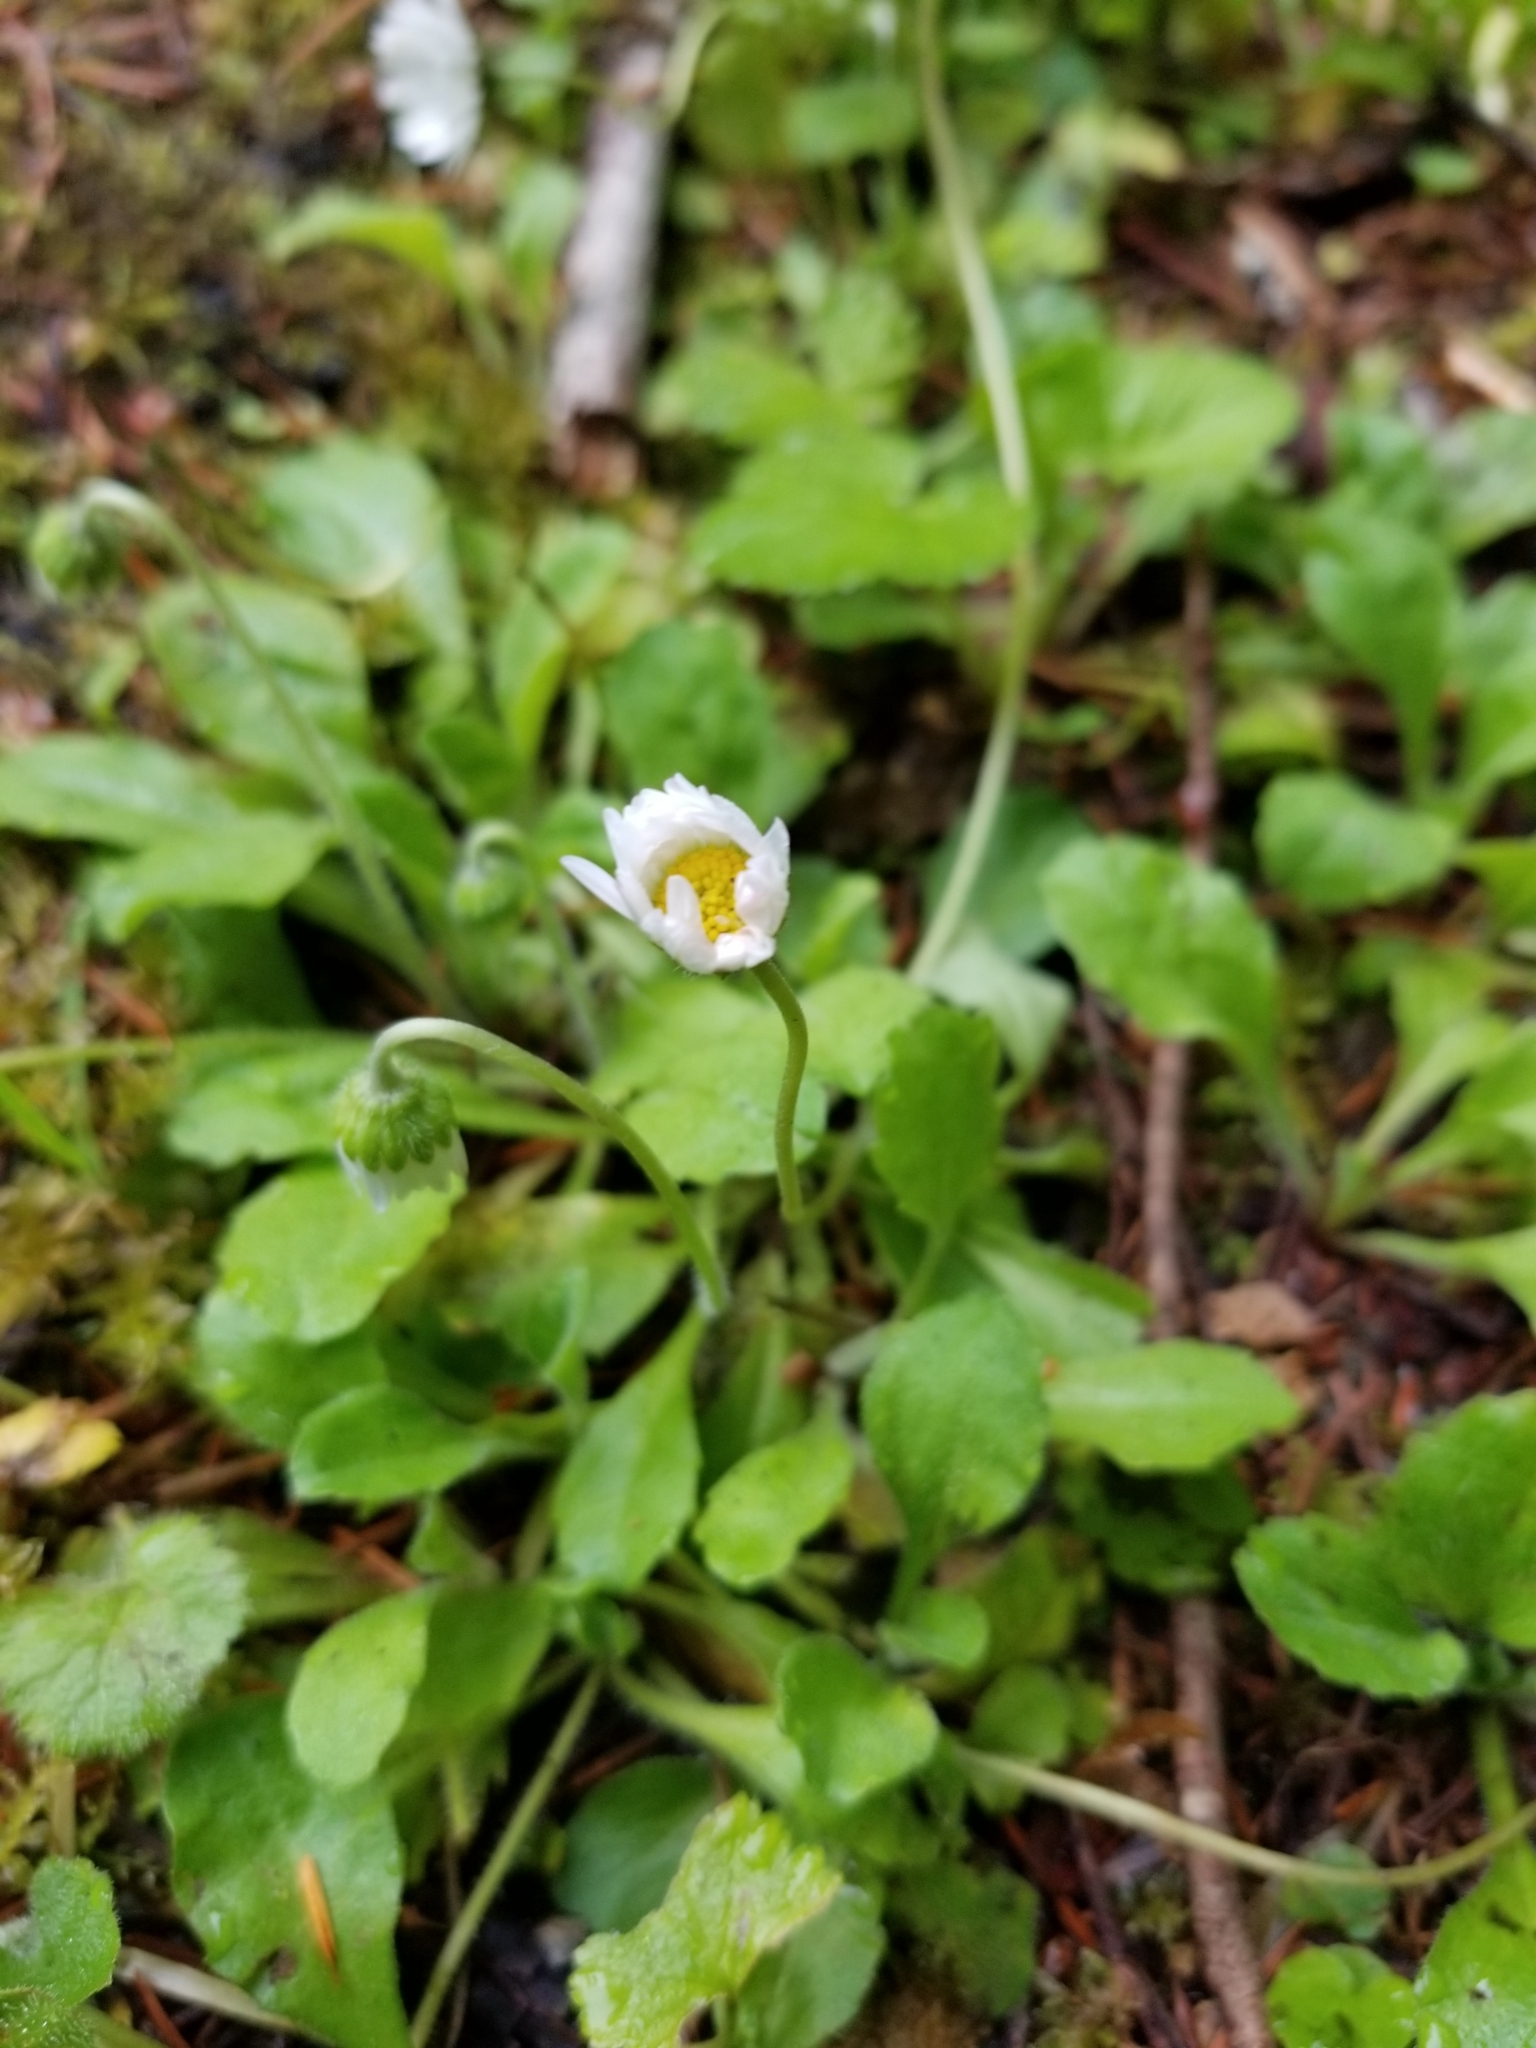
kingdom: Plantae
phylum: Tracheophyta
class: Magnoliopsida
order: Asterales
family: Asteraceae
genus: Bellis
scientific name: Bellis perennis
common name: Lawndaisy
